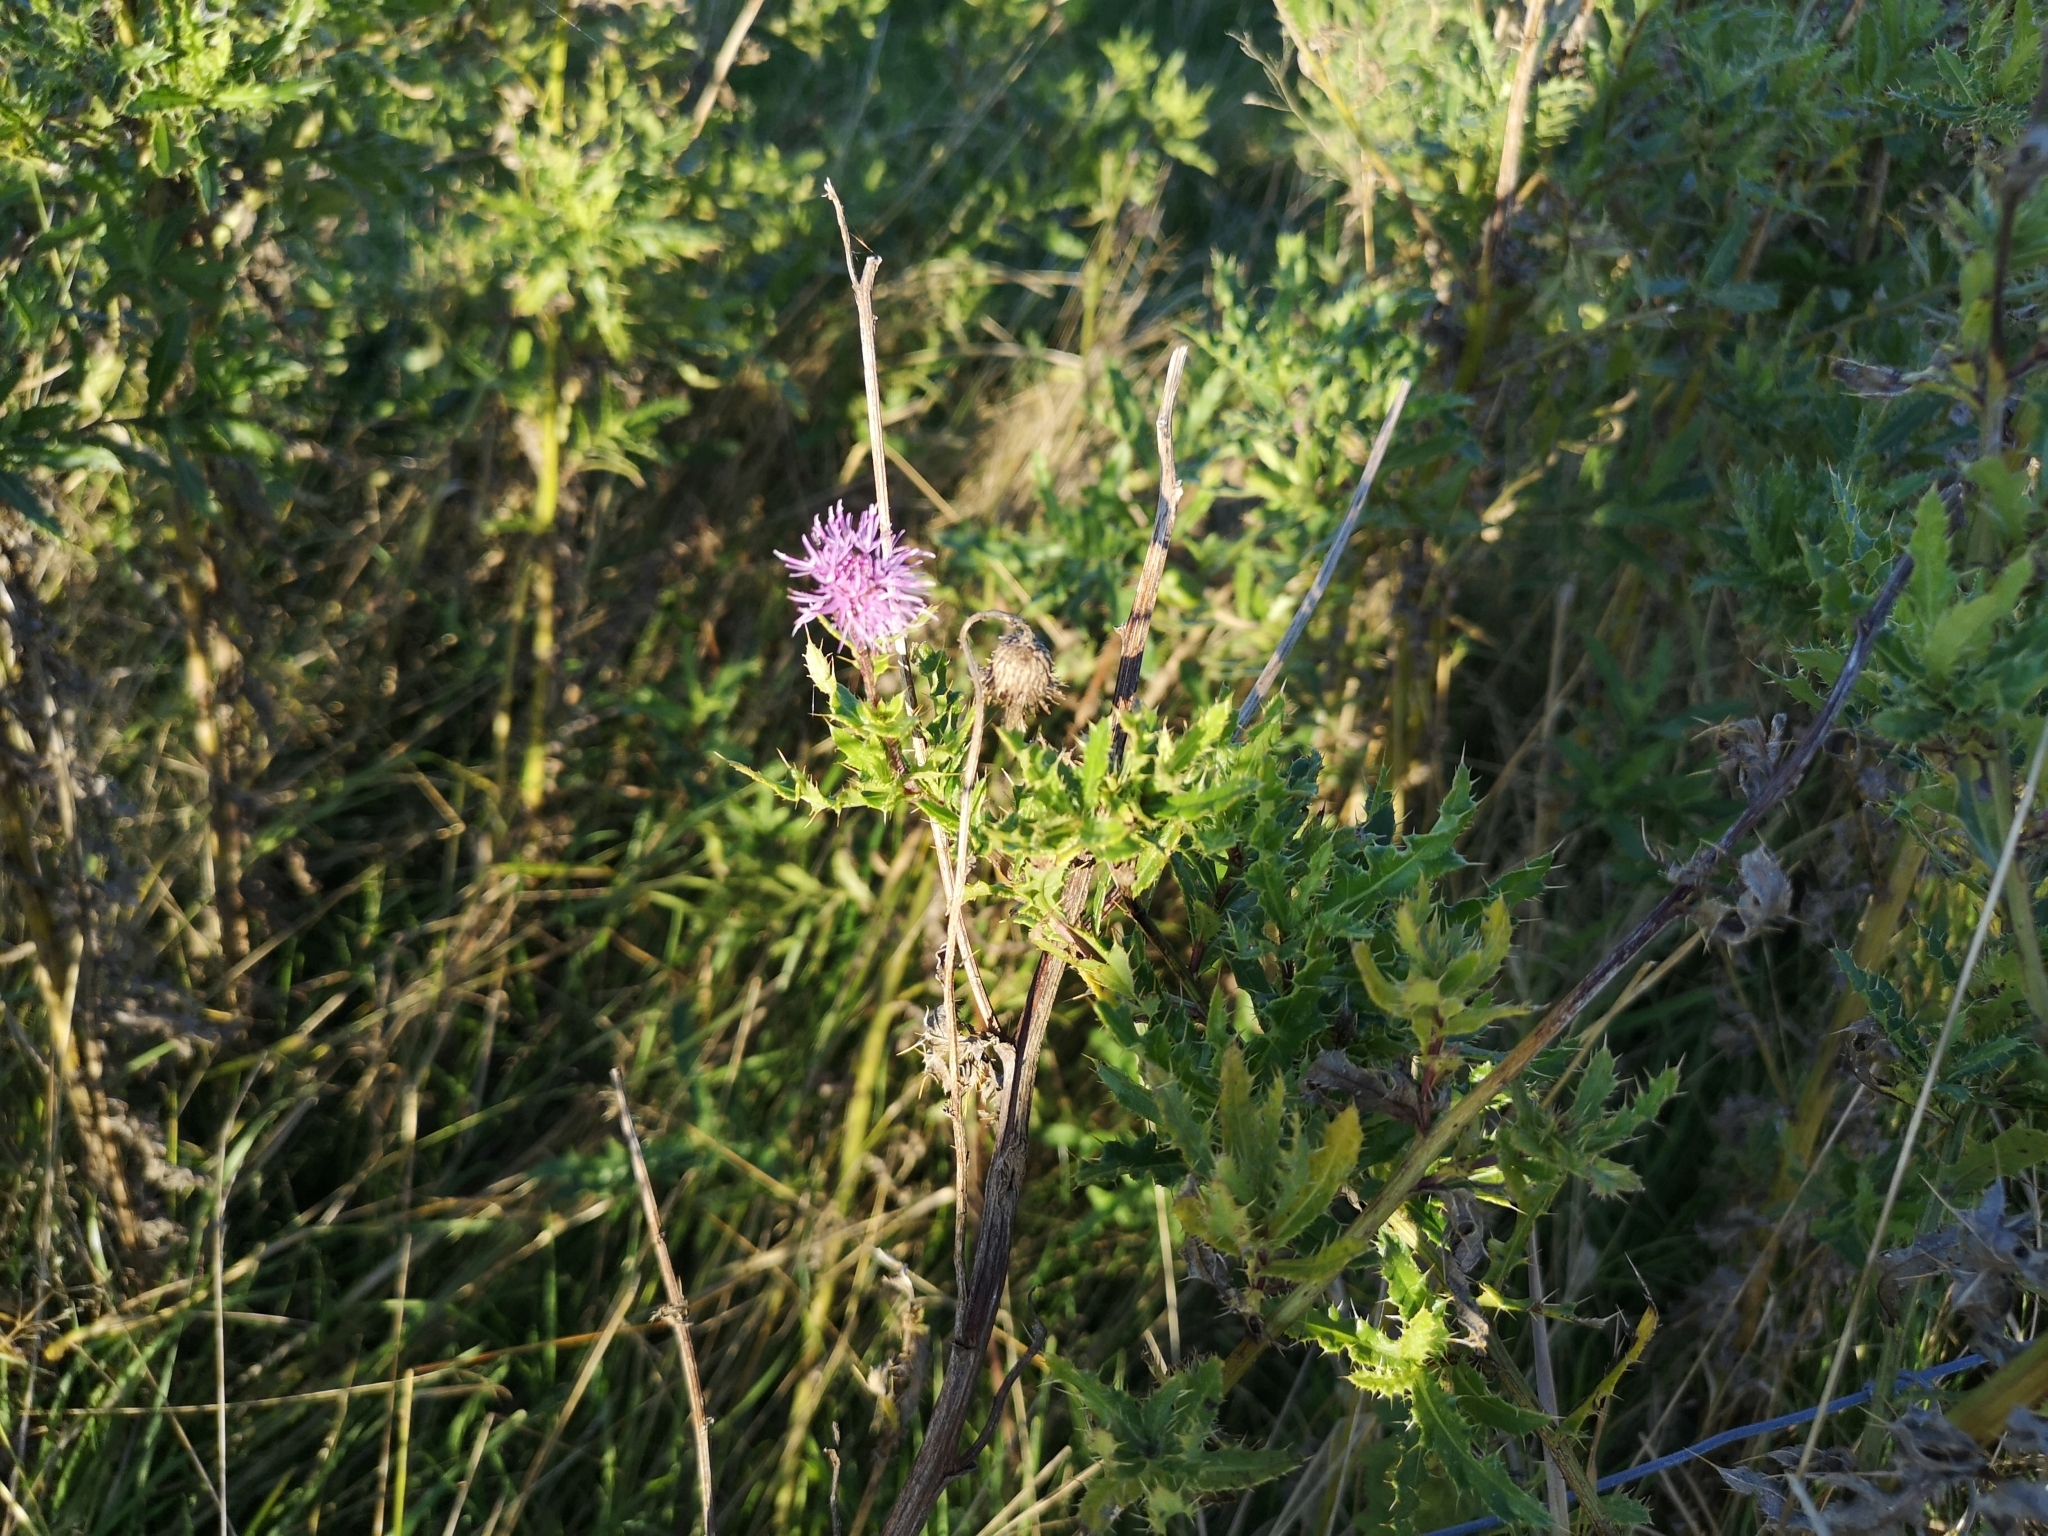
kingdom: Plantae
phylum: Tracheophyta
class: Magnoliopsida
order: Asterales
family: Asteraceae
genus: Cirsium
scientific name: Cirsium arvense
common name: Creeping thistle
